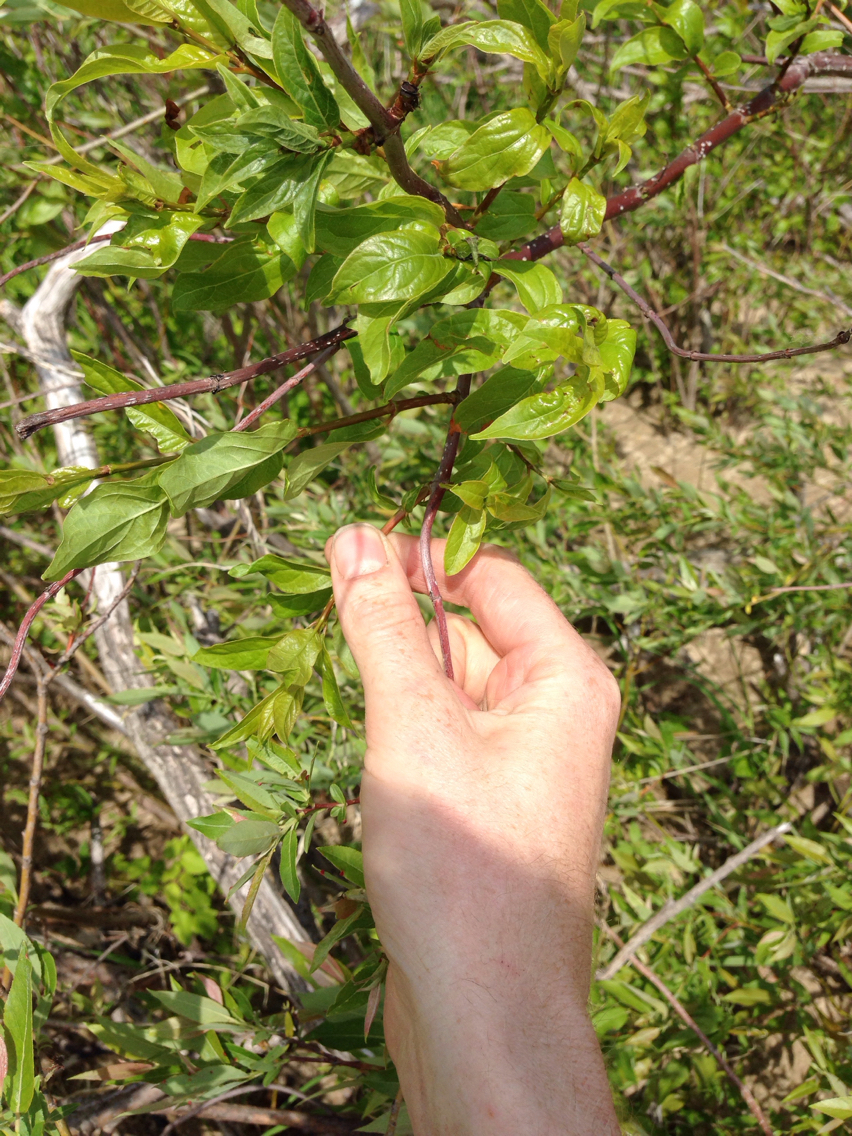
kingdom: Plantae
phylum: Tracheophyta
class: Magnoliopsida
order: Gentianales
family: Rubiaceae
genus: Cephalanthus
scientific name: Cephalanthus occidentalis
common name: Button-willow
